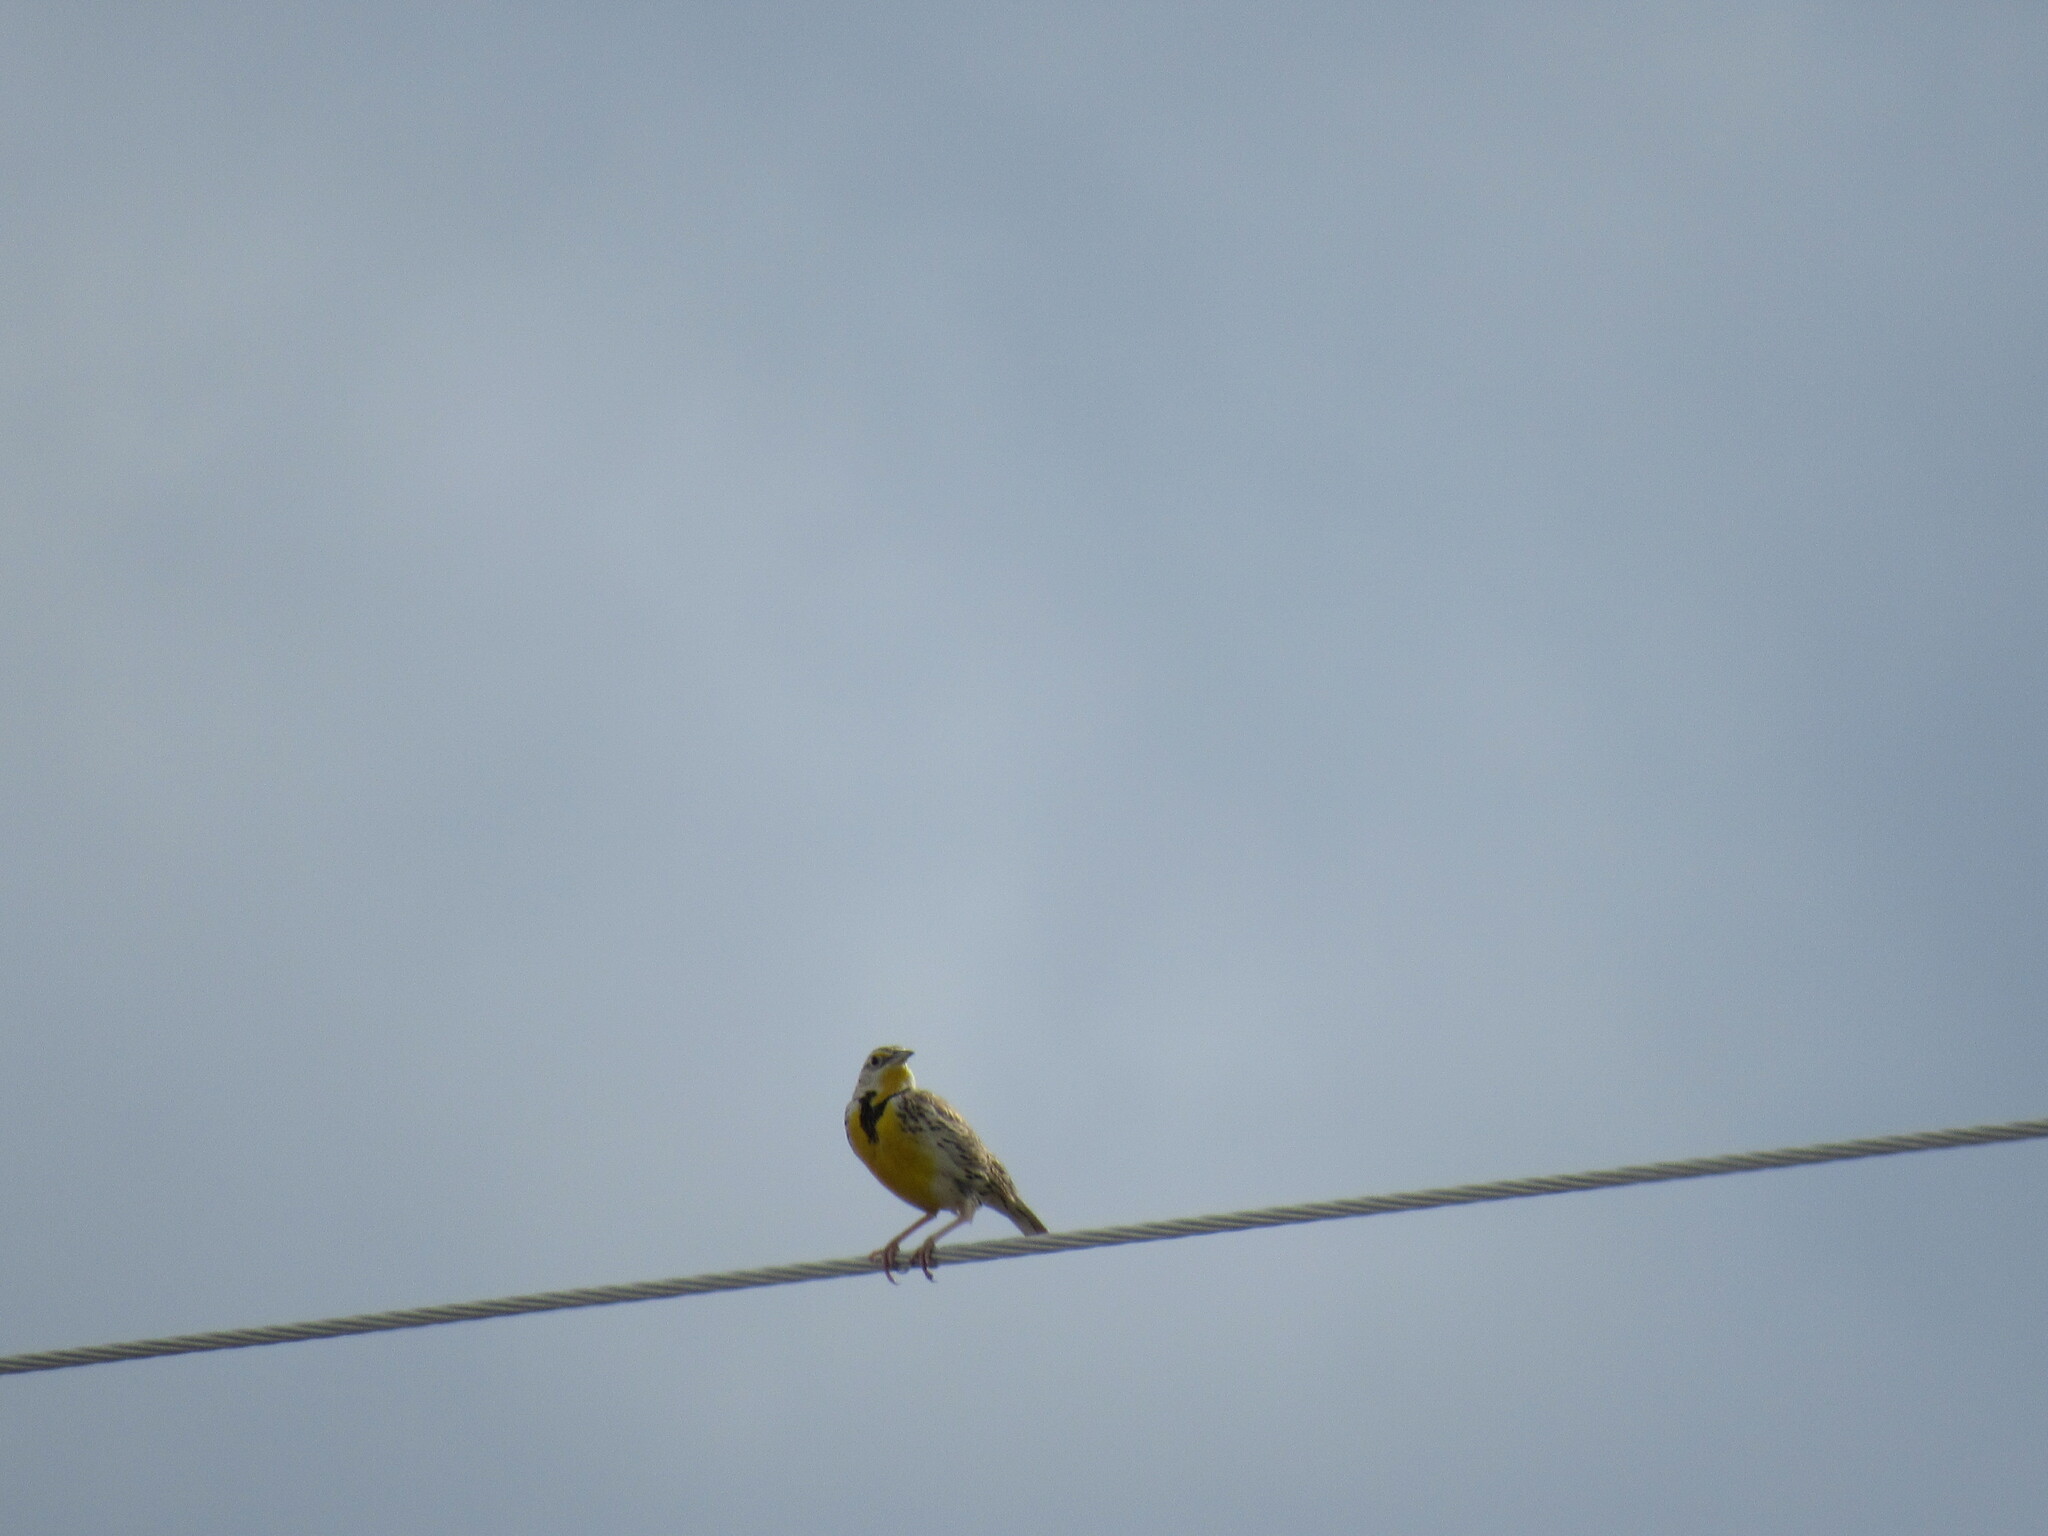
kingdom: Animalia
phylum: Chordata
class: Aves
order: Passeriformes
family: Icteridae
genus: Sturnella
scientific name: Sturnella neglecta
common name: Western meadowlark
